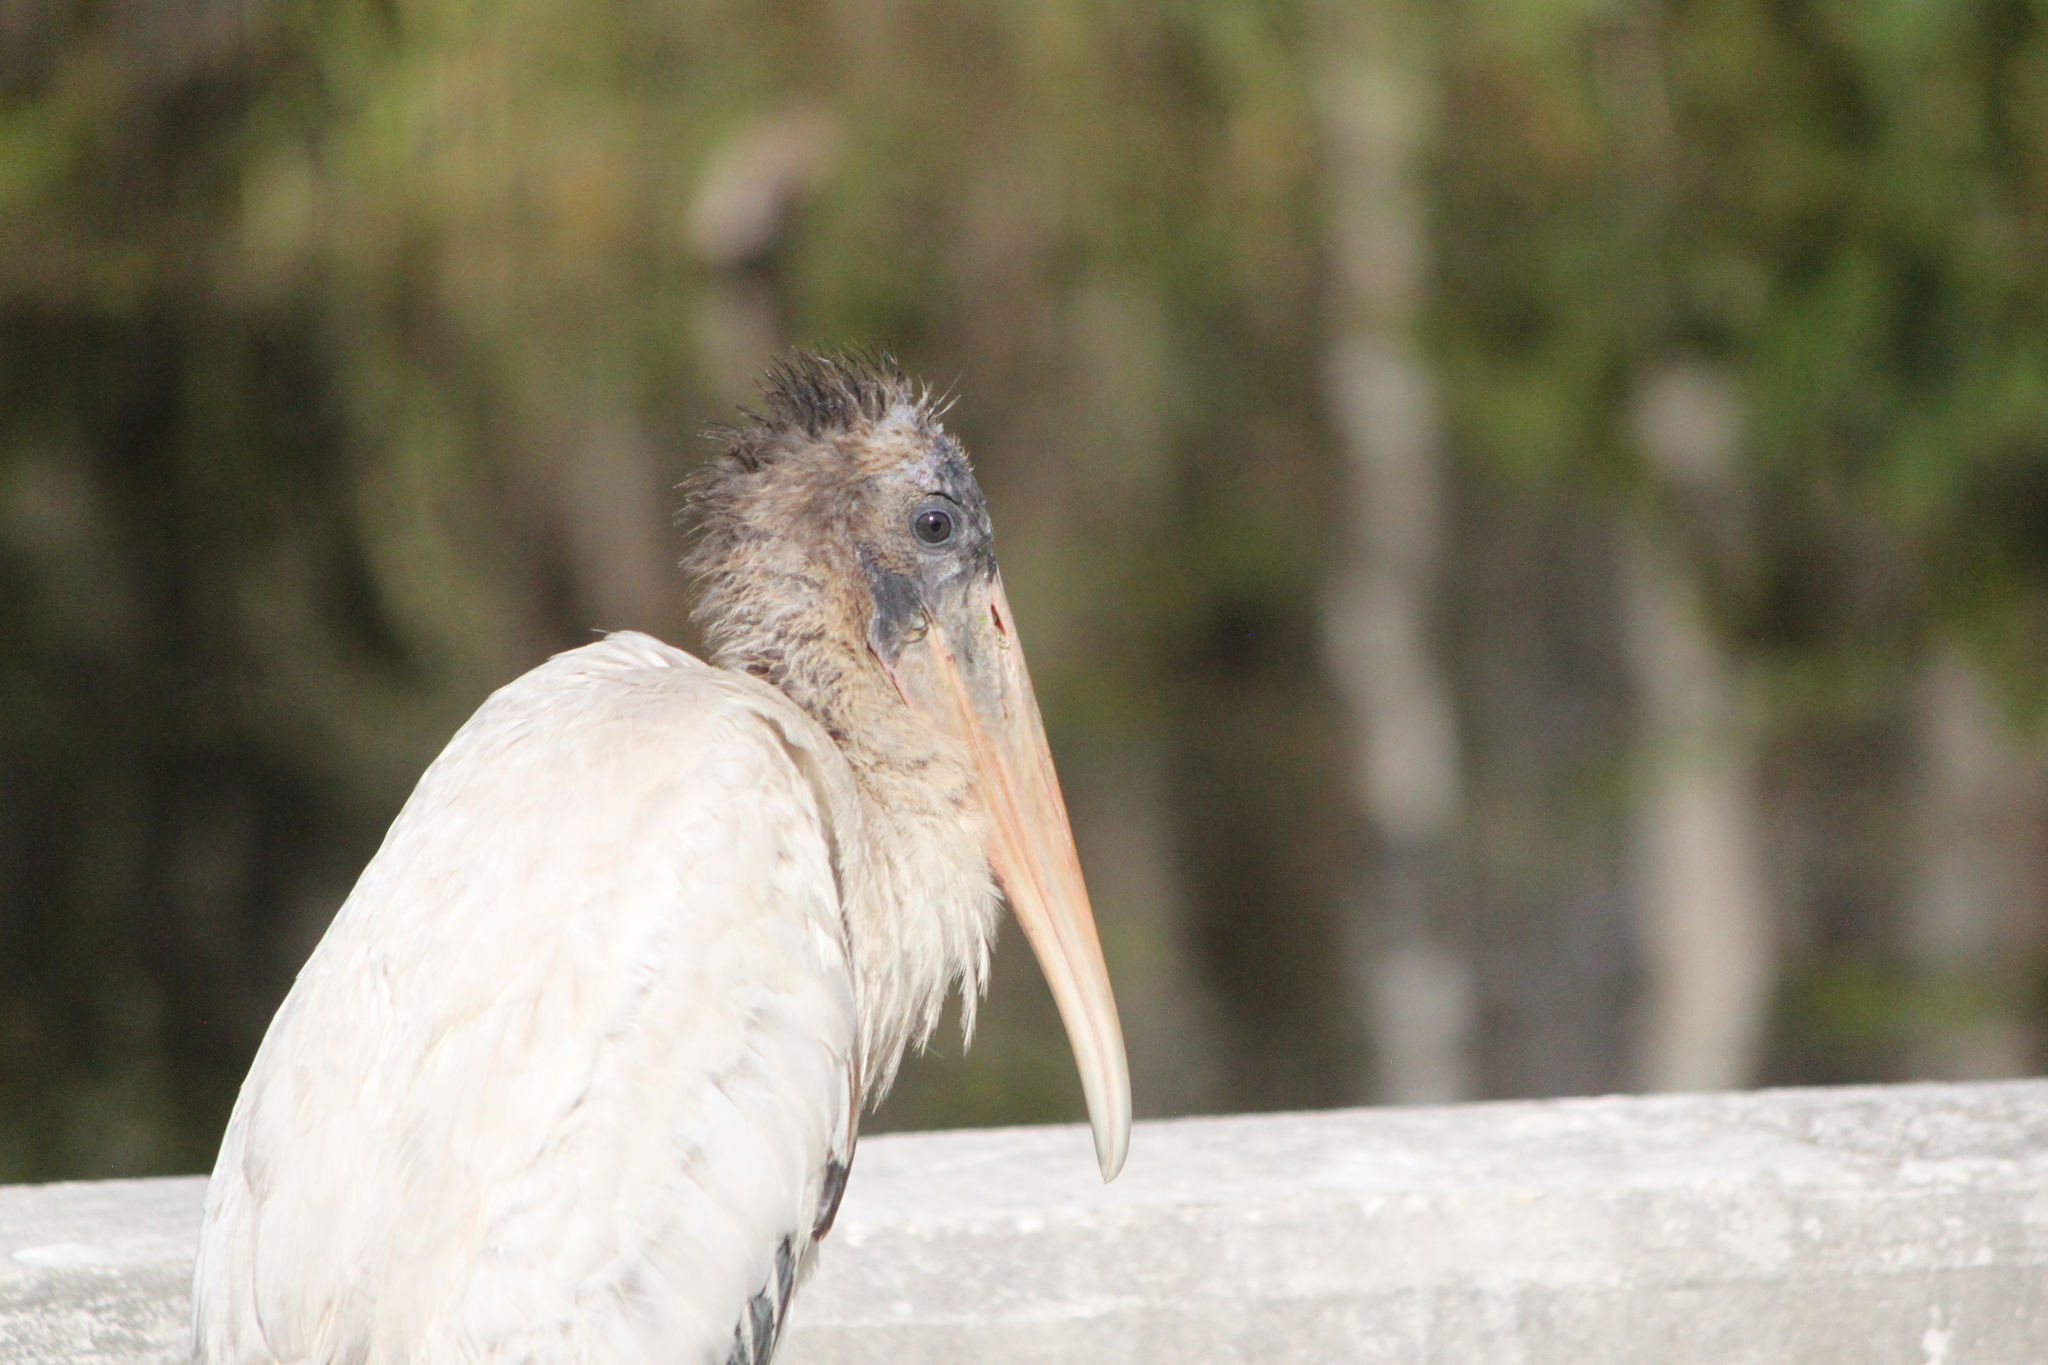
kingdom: Animalia
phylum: Chordata
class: Aves
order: Ciconiiformes
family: Ciconiidae
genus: Mycteria
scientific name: Mycteria americana
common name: Wood stork
